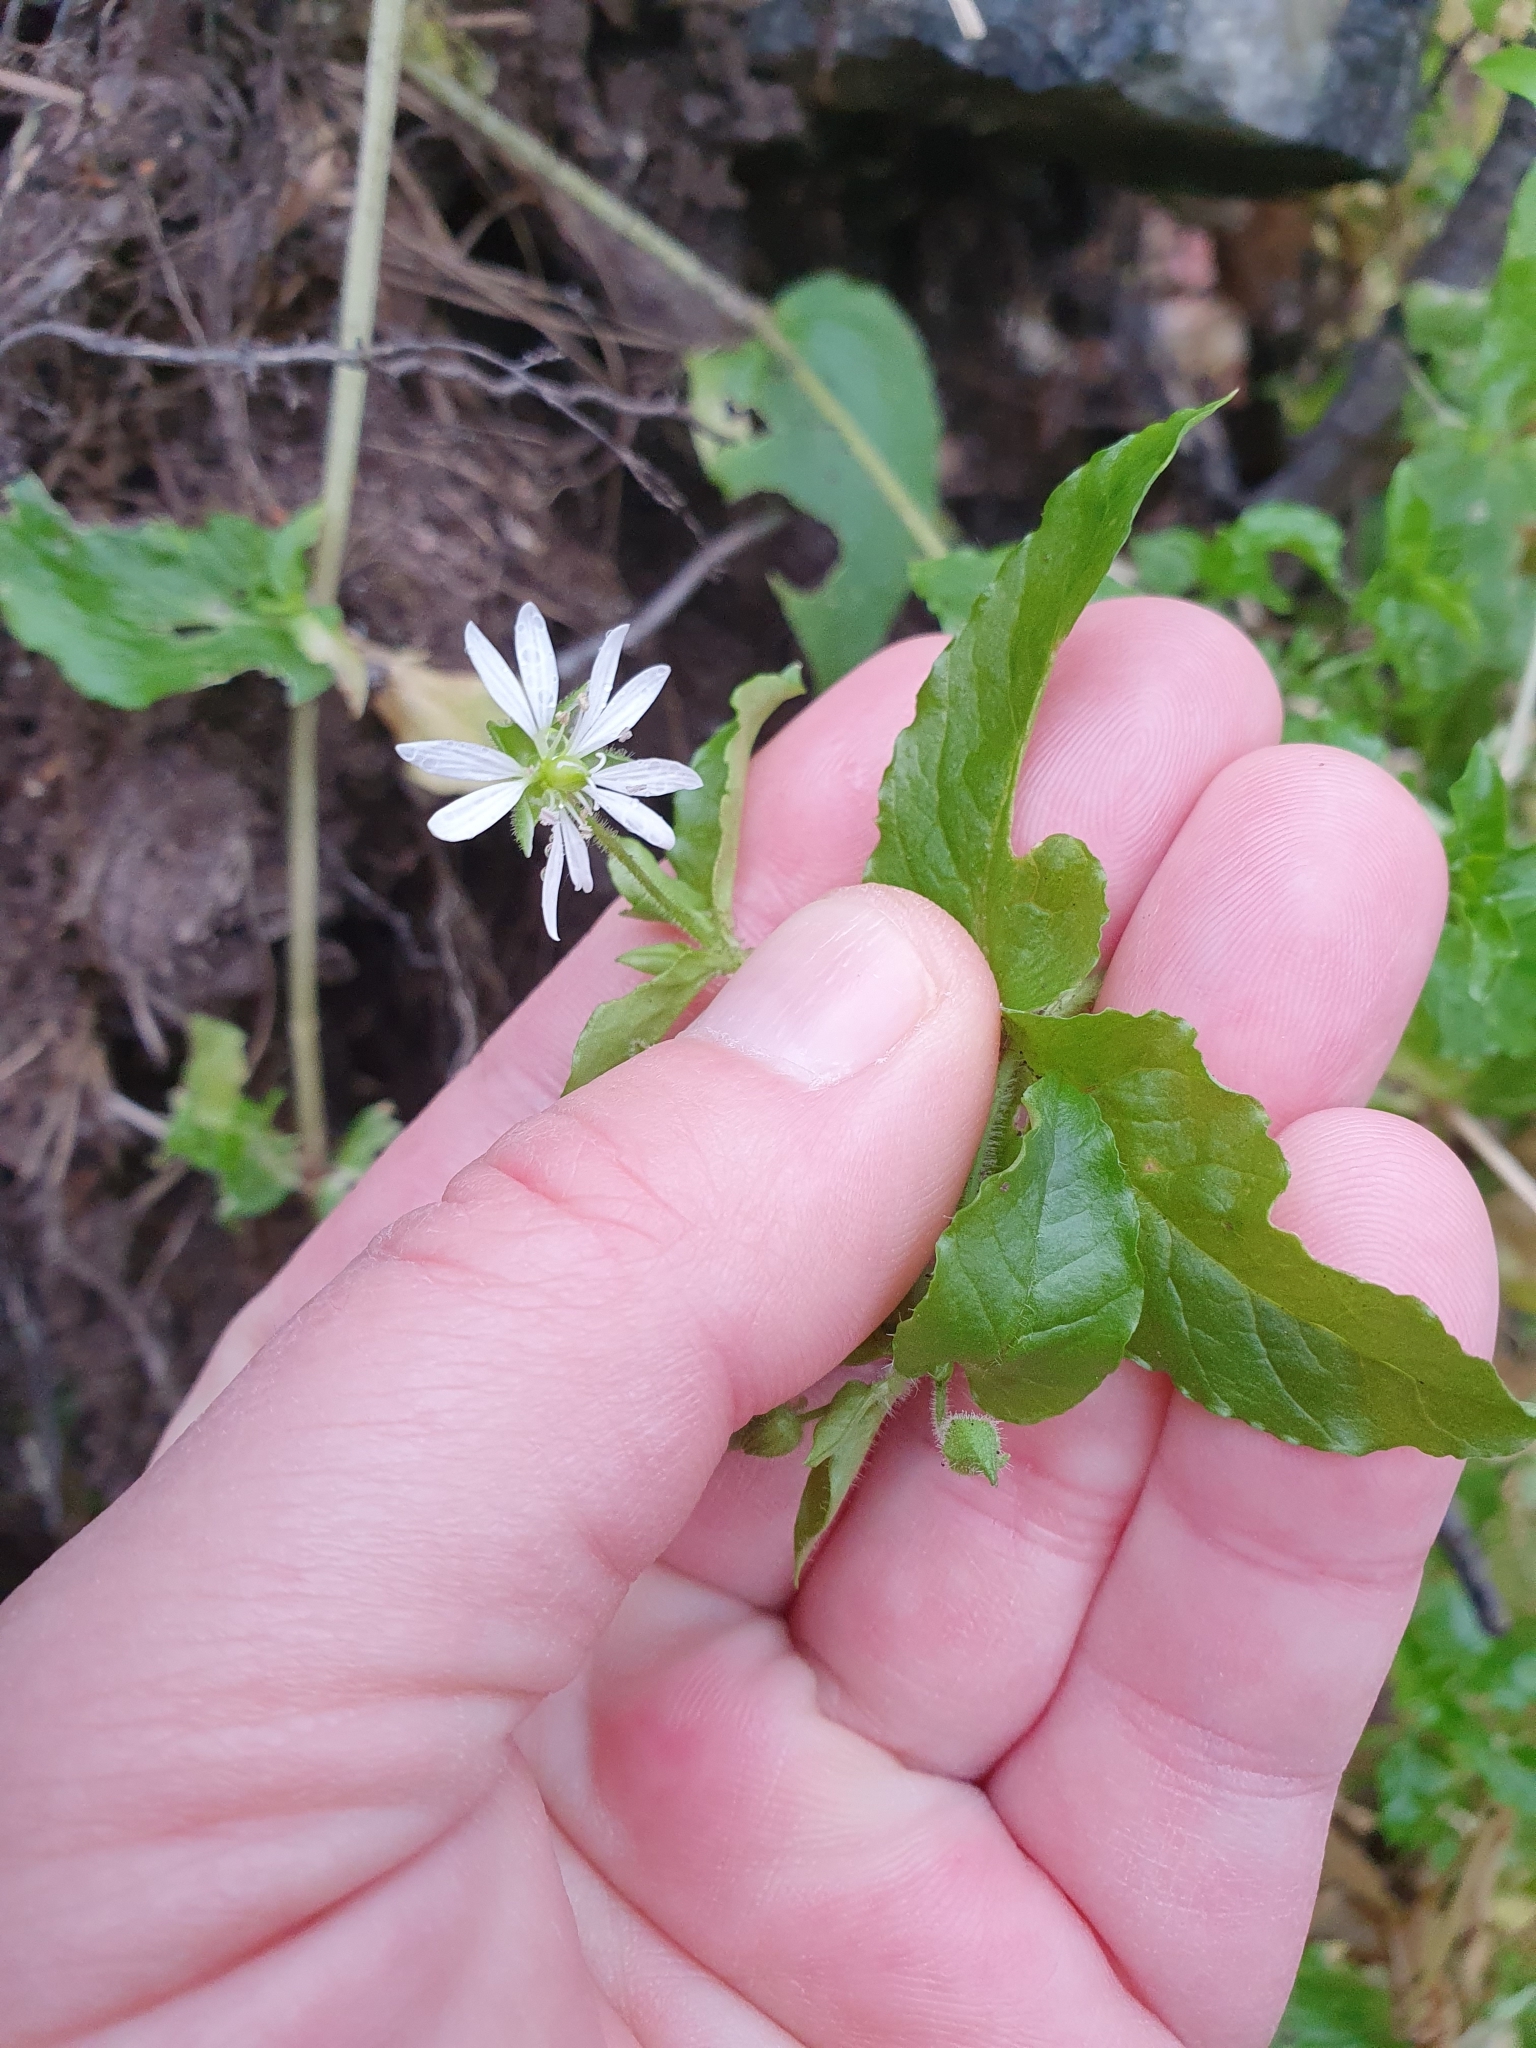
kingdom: Plantae
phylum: Tracheophyta
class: Magnoliopsida
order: Caryophyllales
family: Caryophyllaceae
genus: Stellaria
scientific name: Stellaria aquatica
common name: Water chickweed
